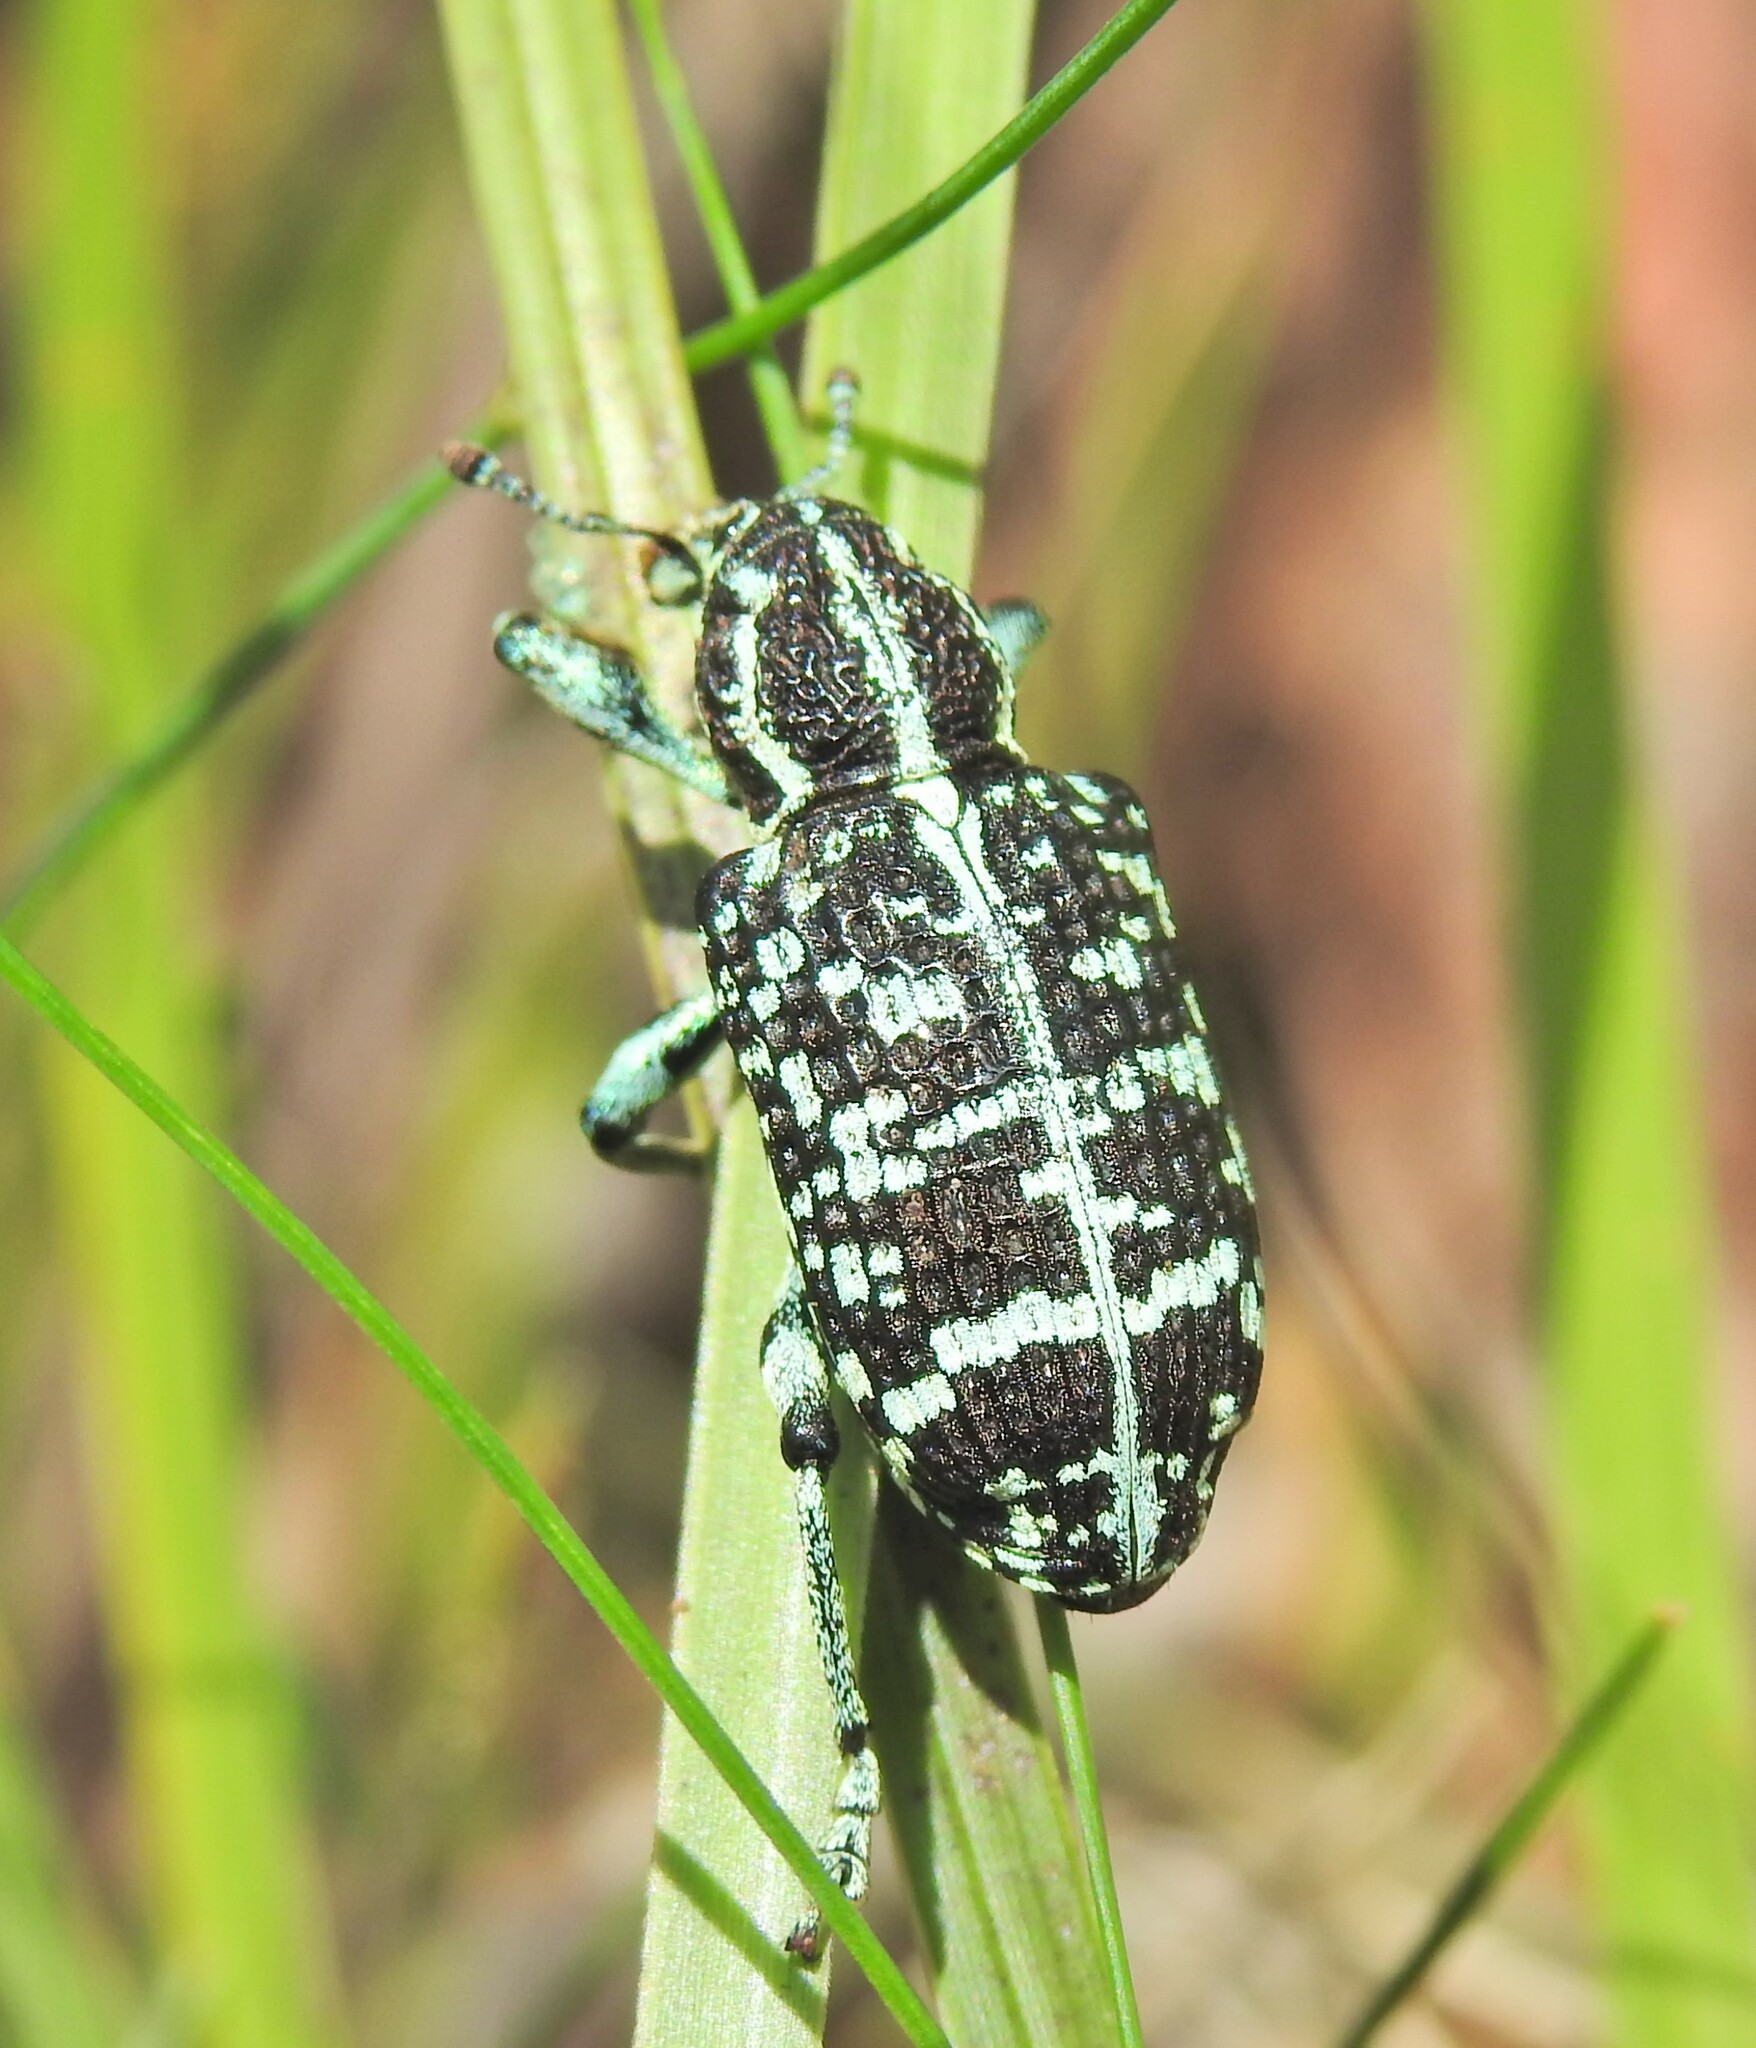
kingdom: Animalia
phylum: Arthropoda
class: Insecta
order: Coleoptera
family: Curculionidae
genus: Chrysolopus
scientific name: Chrysolopus spectabilis
